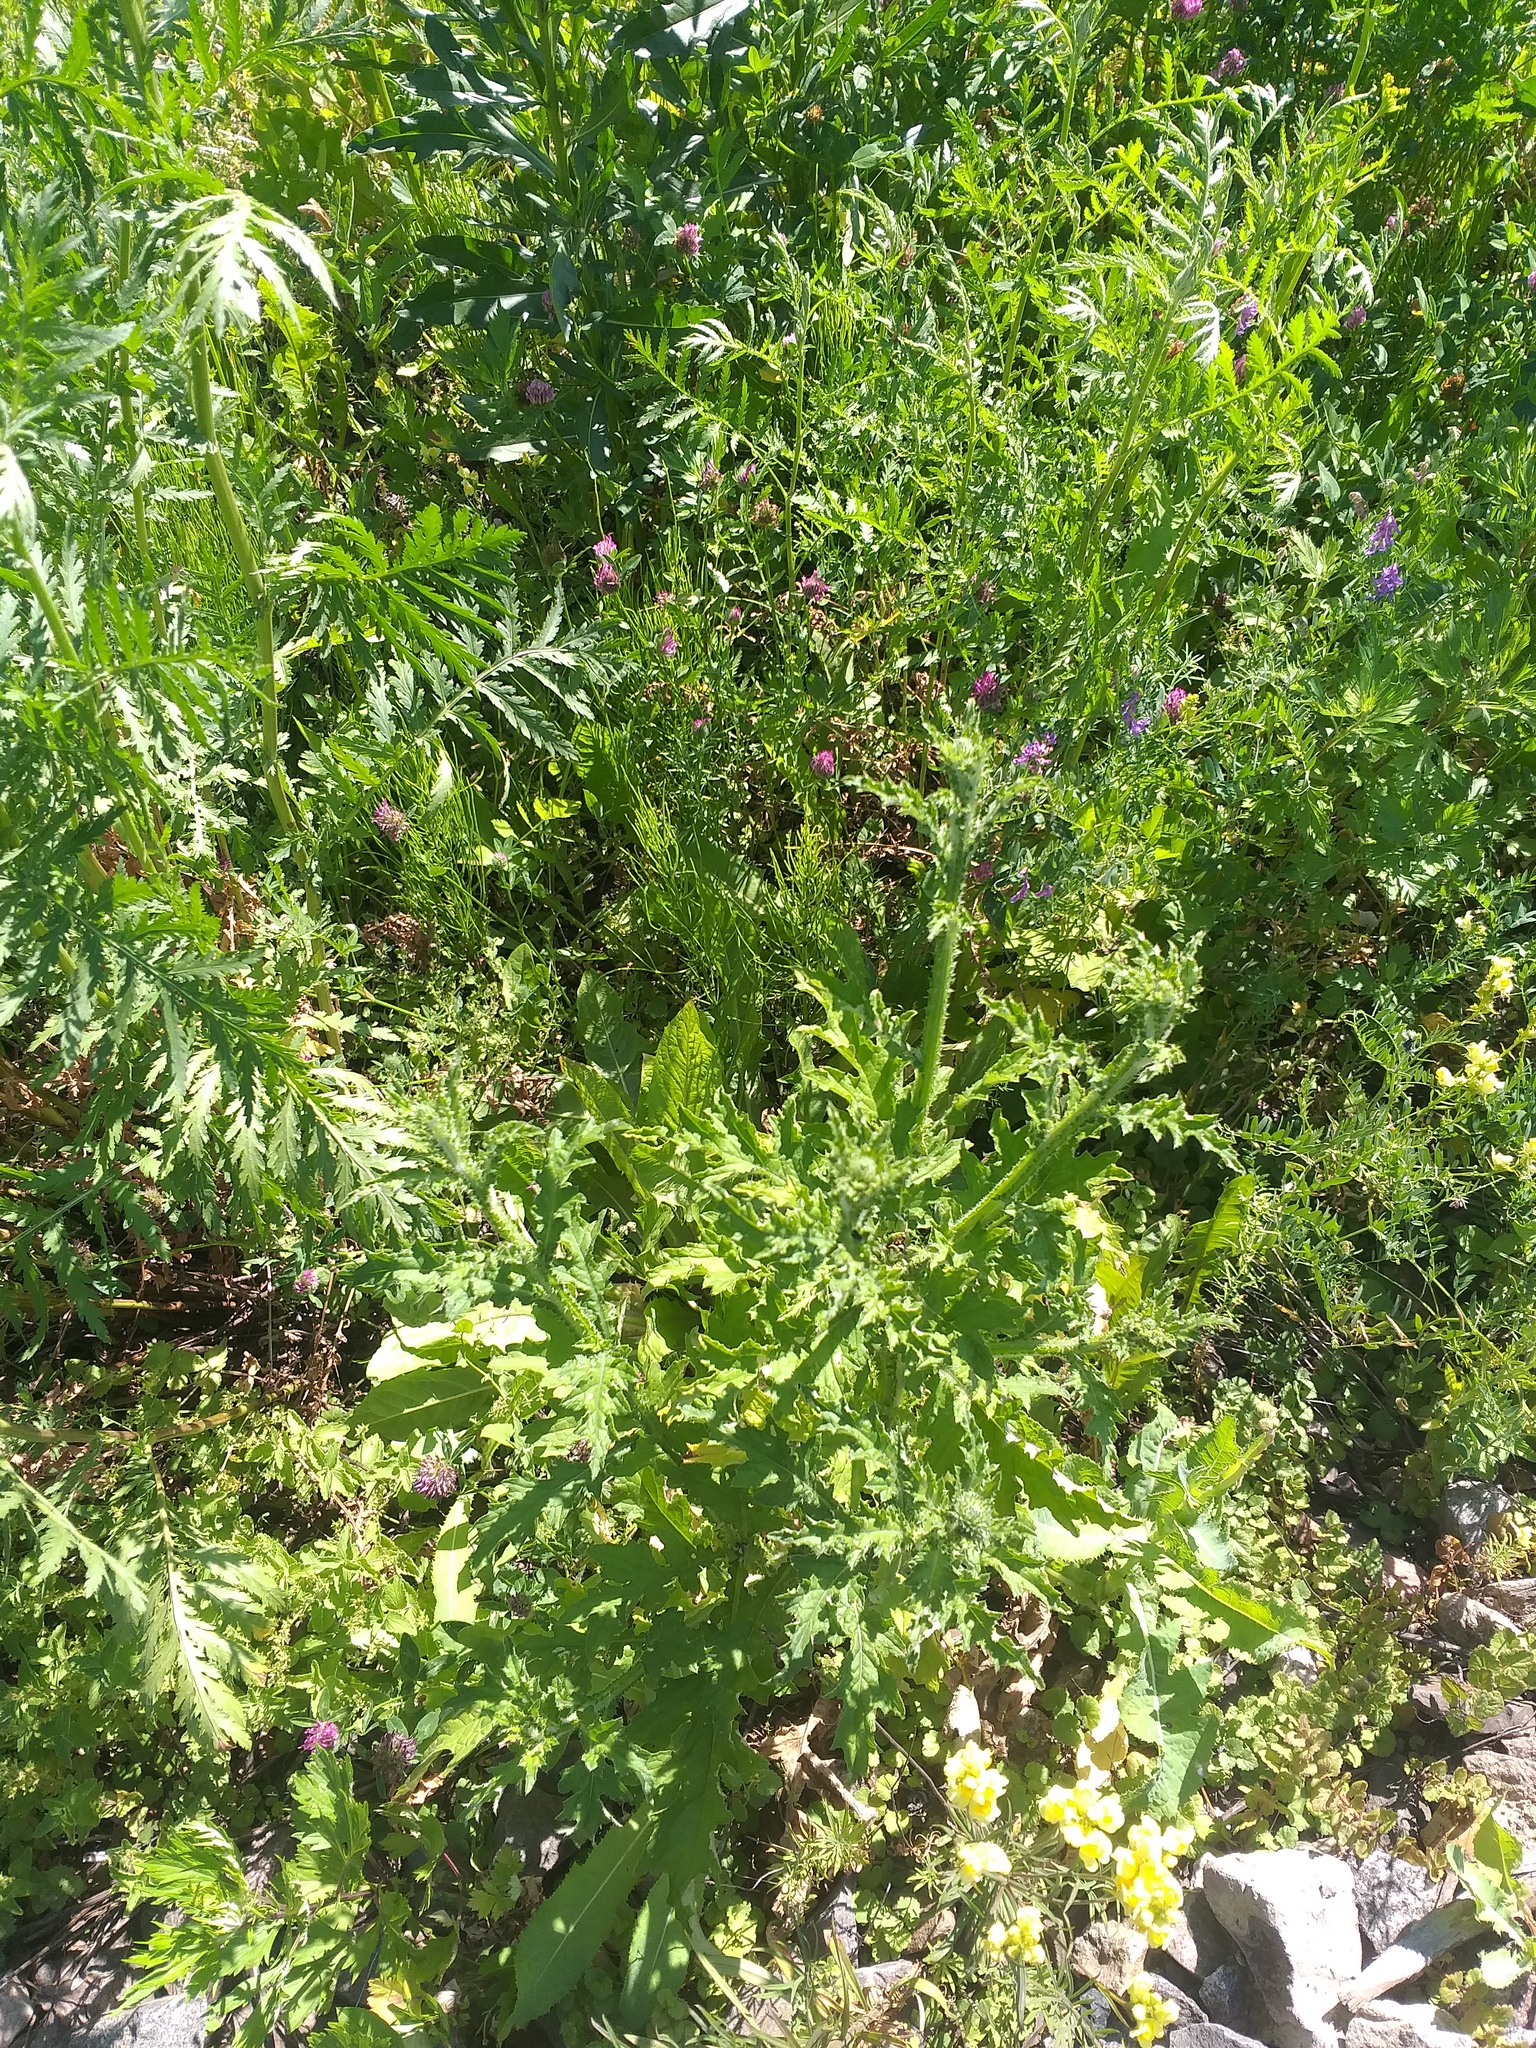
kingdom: Plantae
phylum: Tracheophyta
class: Magnoliopsida
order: Asterales
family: Asteraceae
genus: Carduus
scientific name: Carduus crispus
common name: Welted thistle
